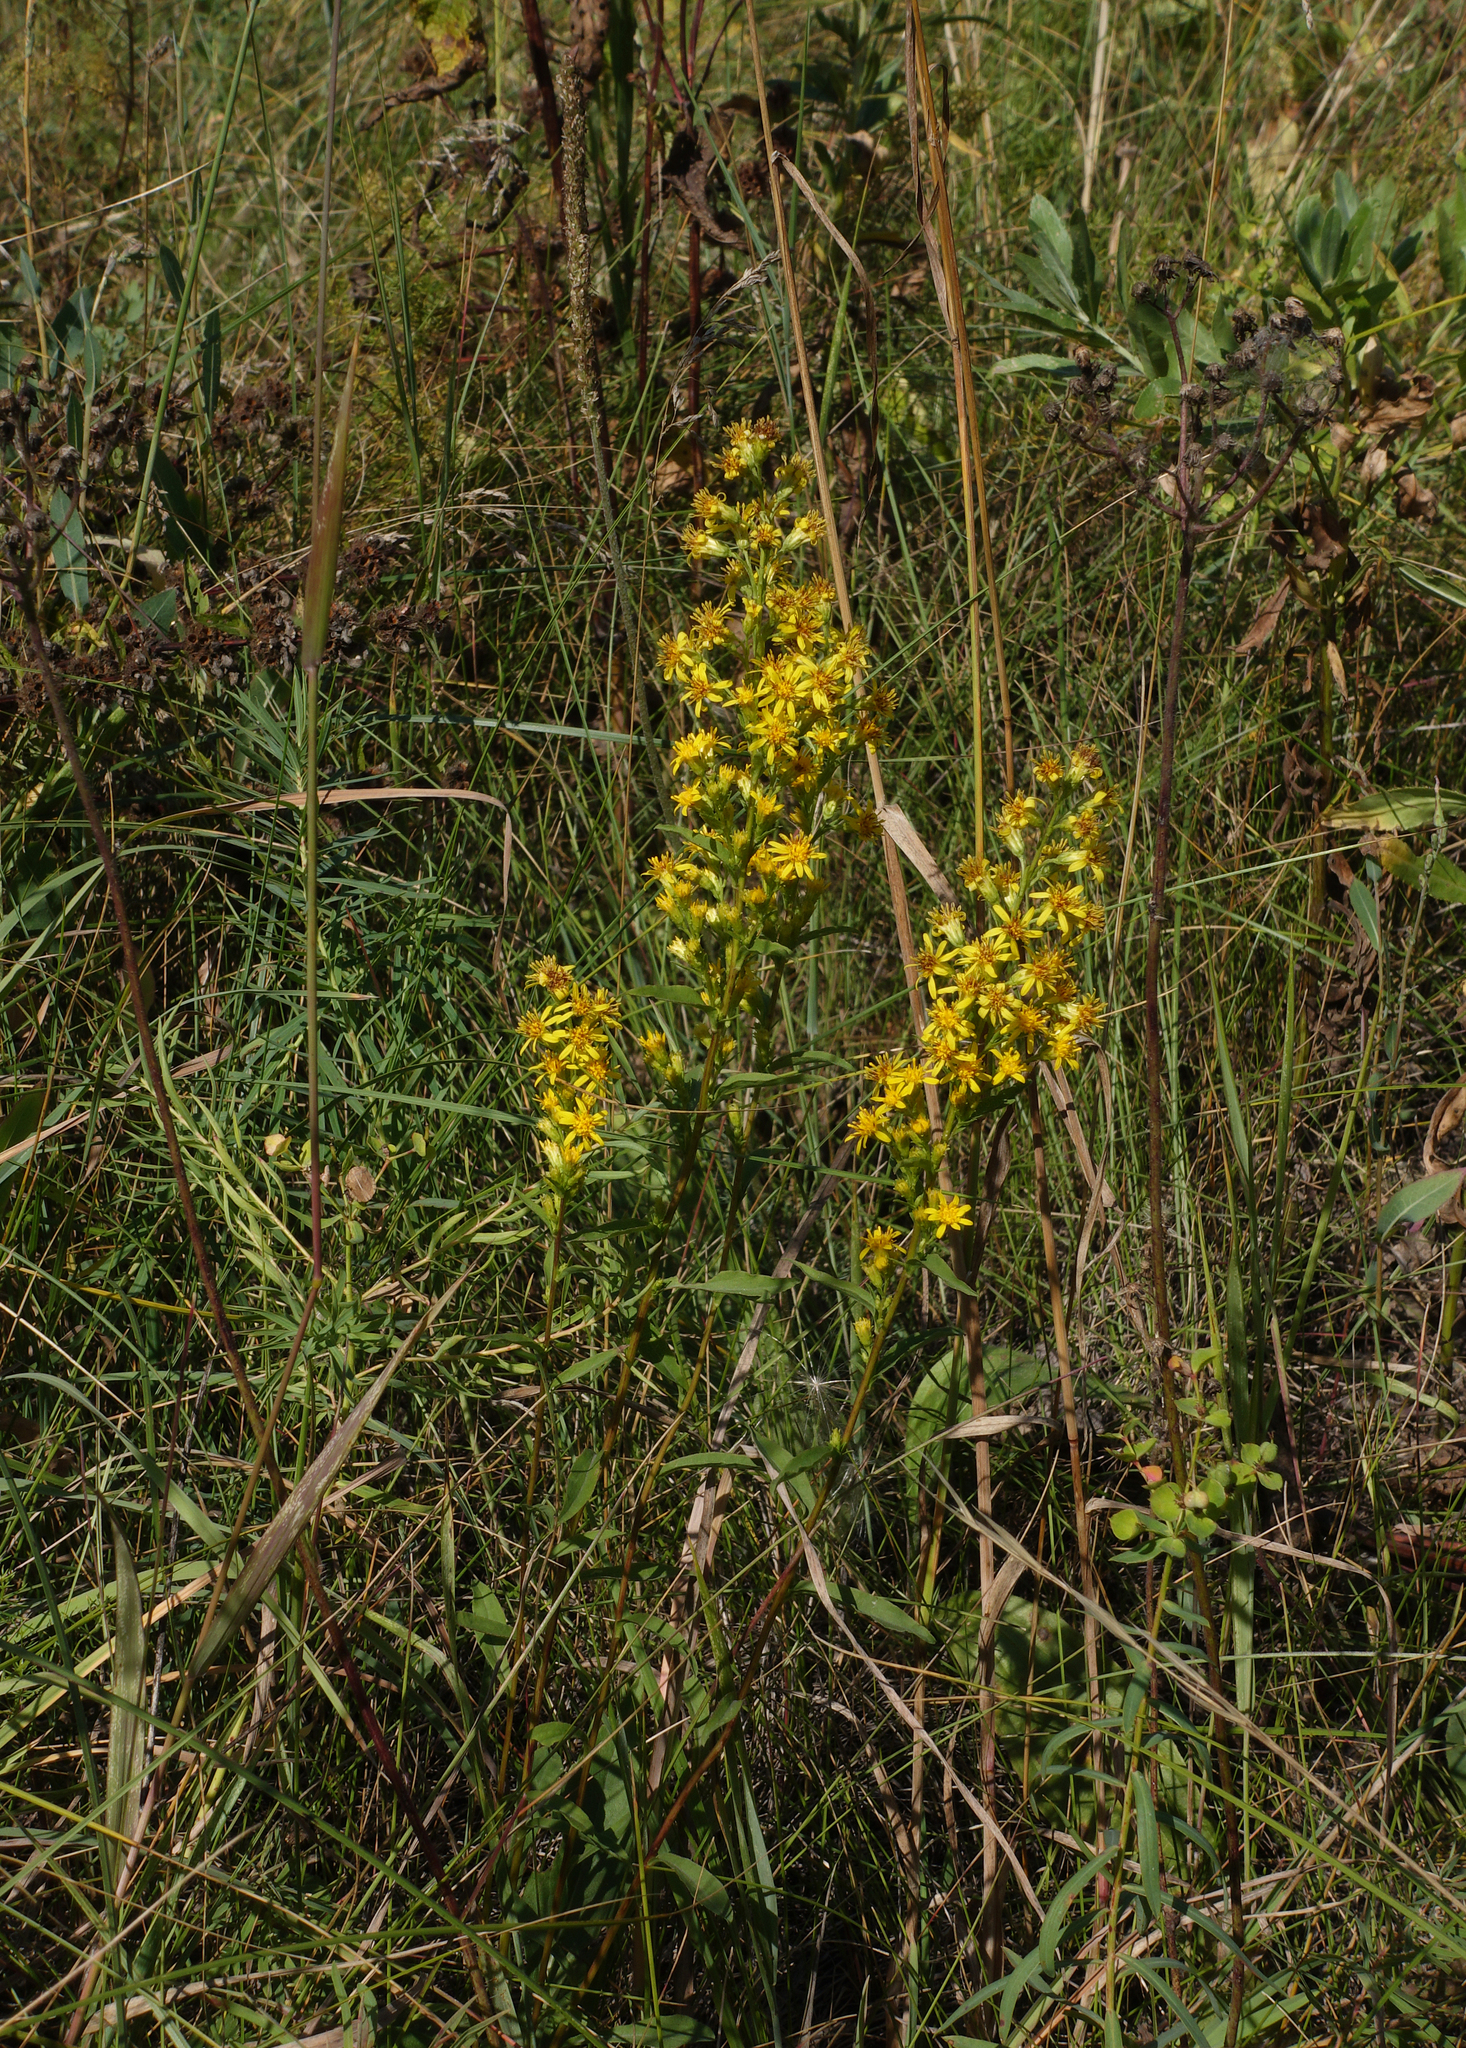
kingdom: Plantae
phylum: Tracheophyta
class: Magnoliopsida
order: Asterales
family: Asteraceae
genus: Solidago
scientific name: Solidago virgaurea
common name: Goldenrod
